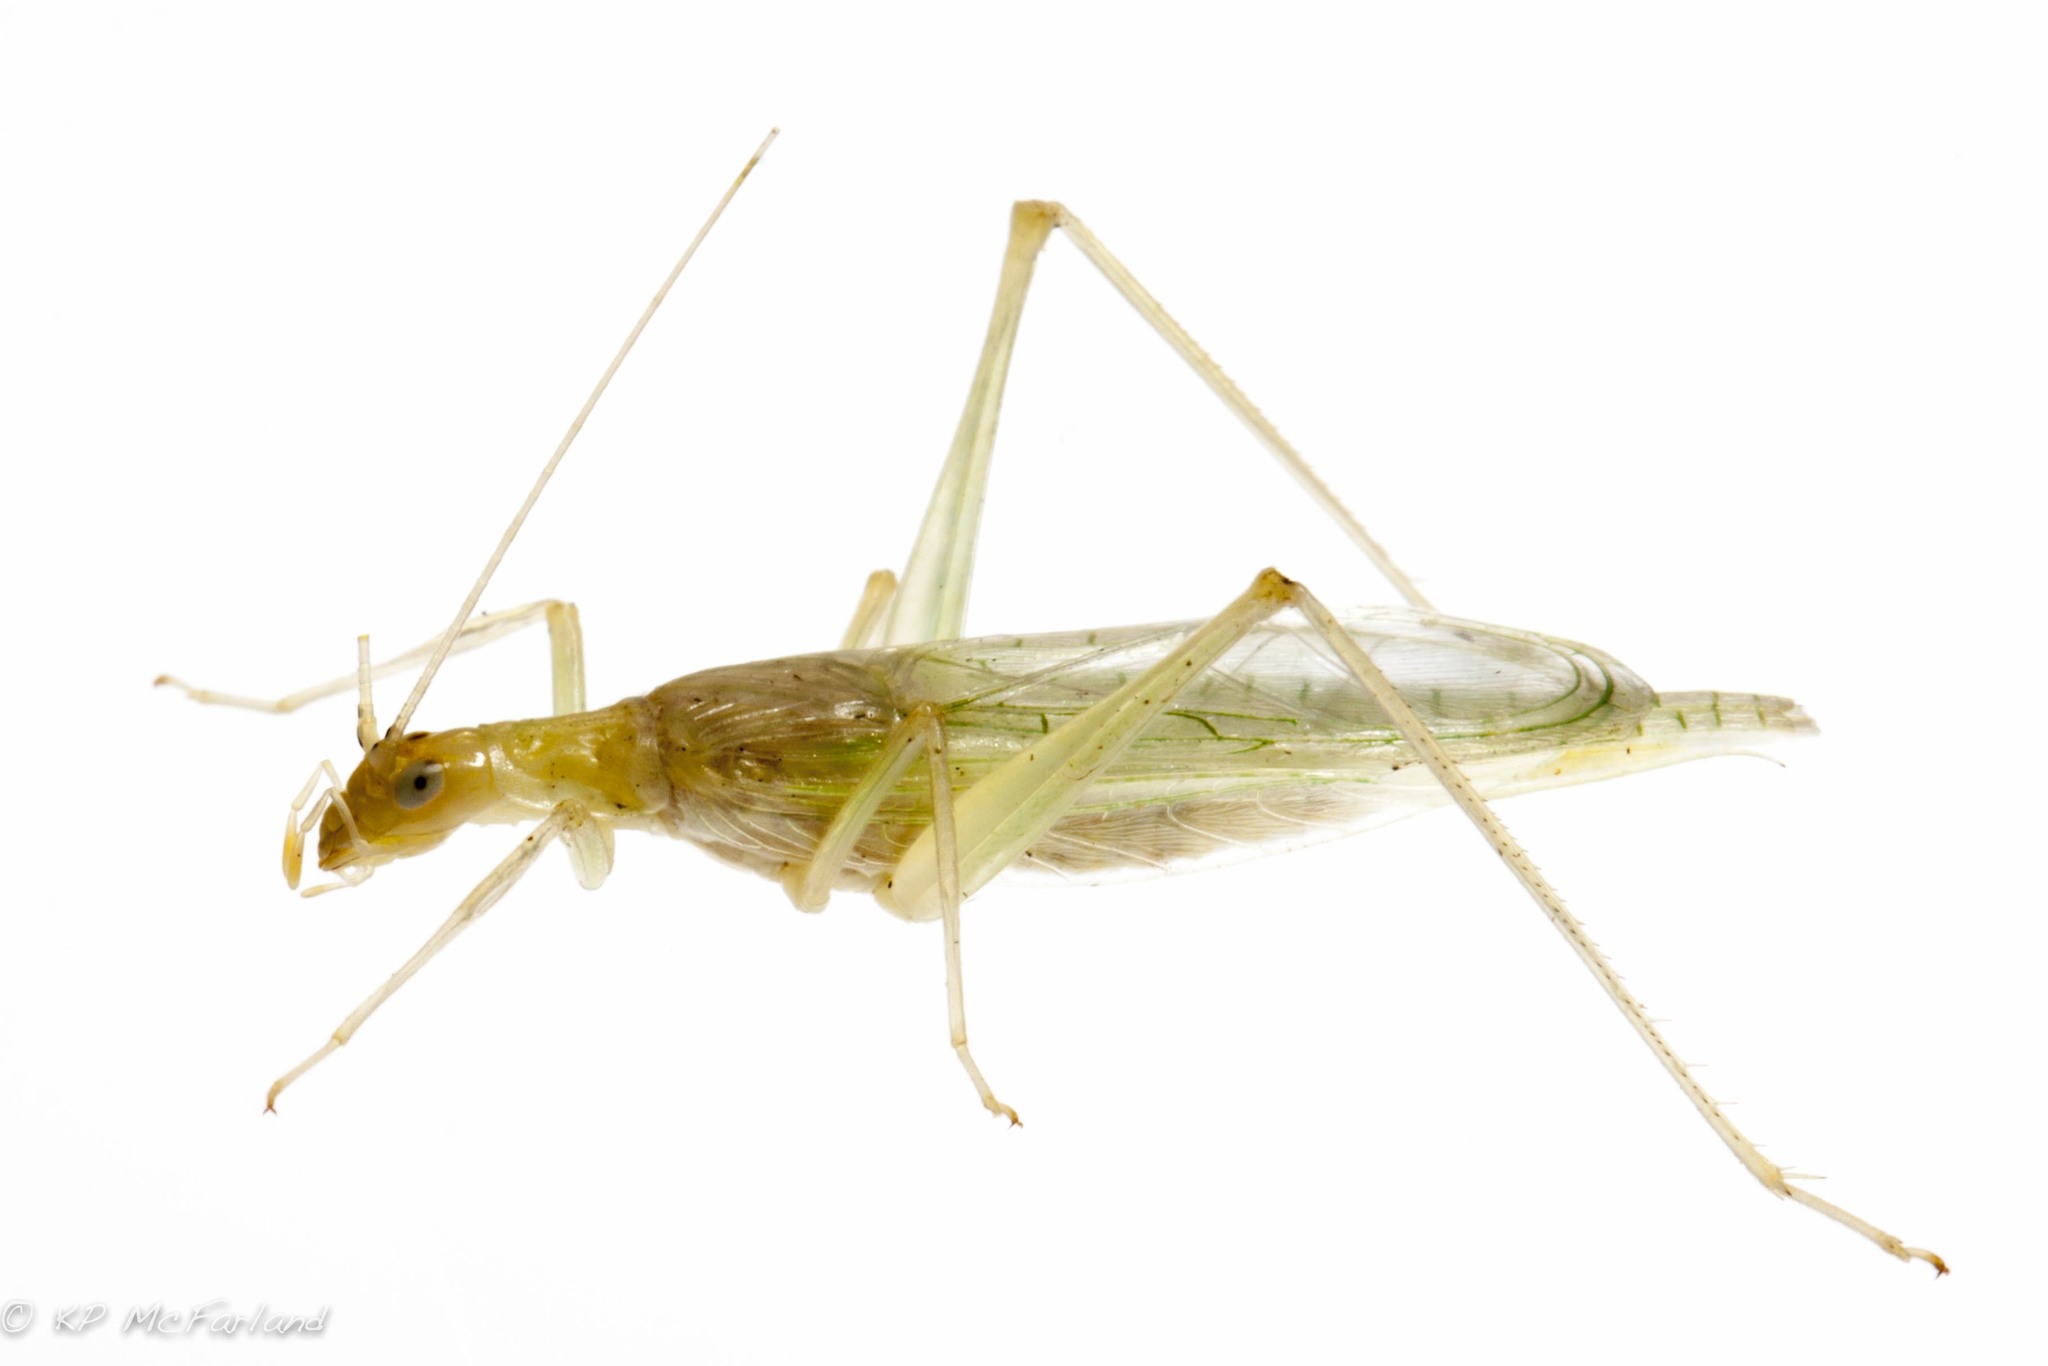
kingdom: Animalia
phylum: Arthropoda
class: Insecta
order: Orthoptera
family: Gryllidae
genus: Oecanthus
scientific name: Oecanthus exclamationis
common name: Davis's tree cricket
